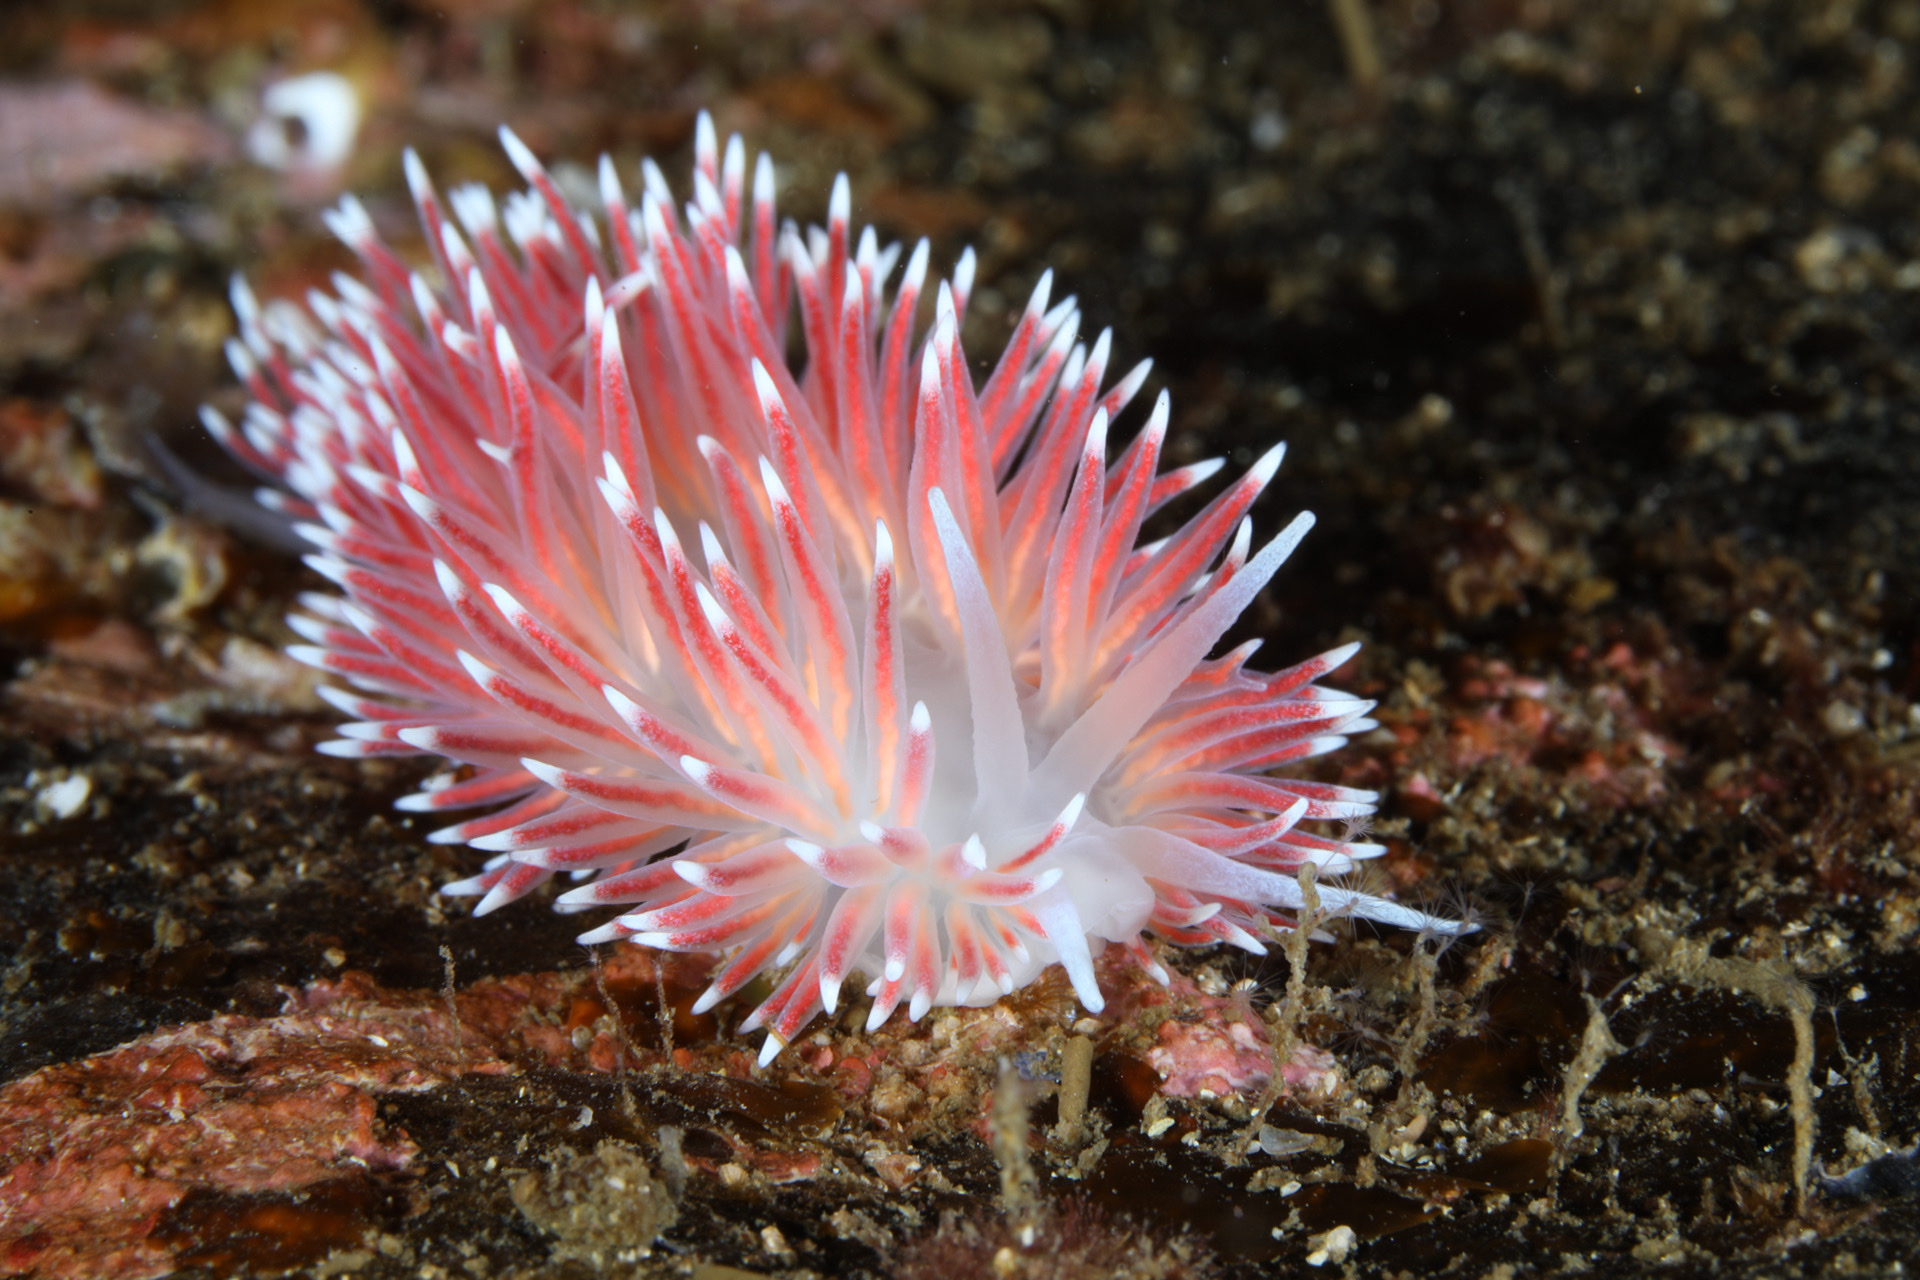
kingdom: Animalia
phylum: Mollusca
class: Gastropoda
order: Nudibranchia
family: Flabellinidae
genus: Carronella
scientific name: Carronella pellucida
